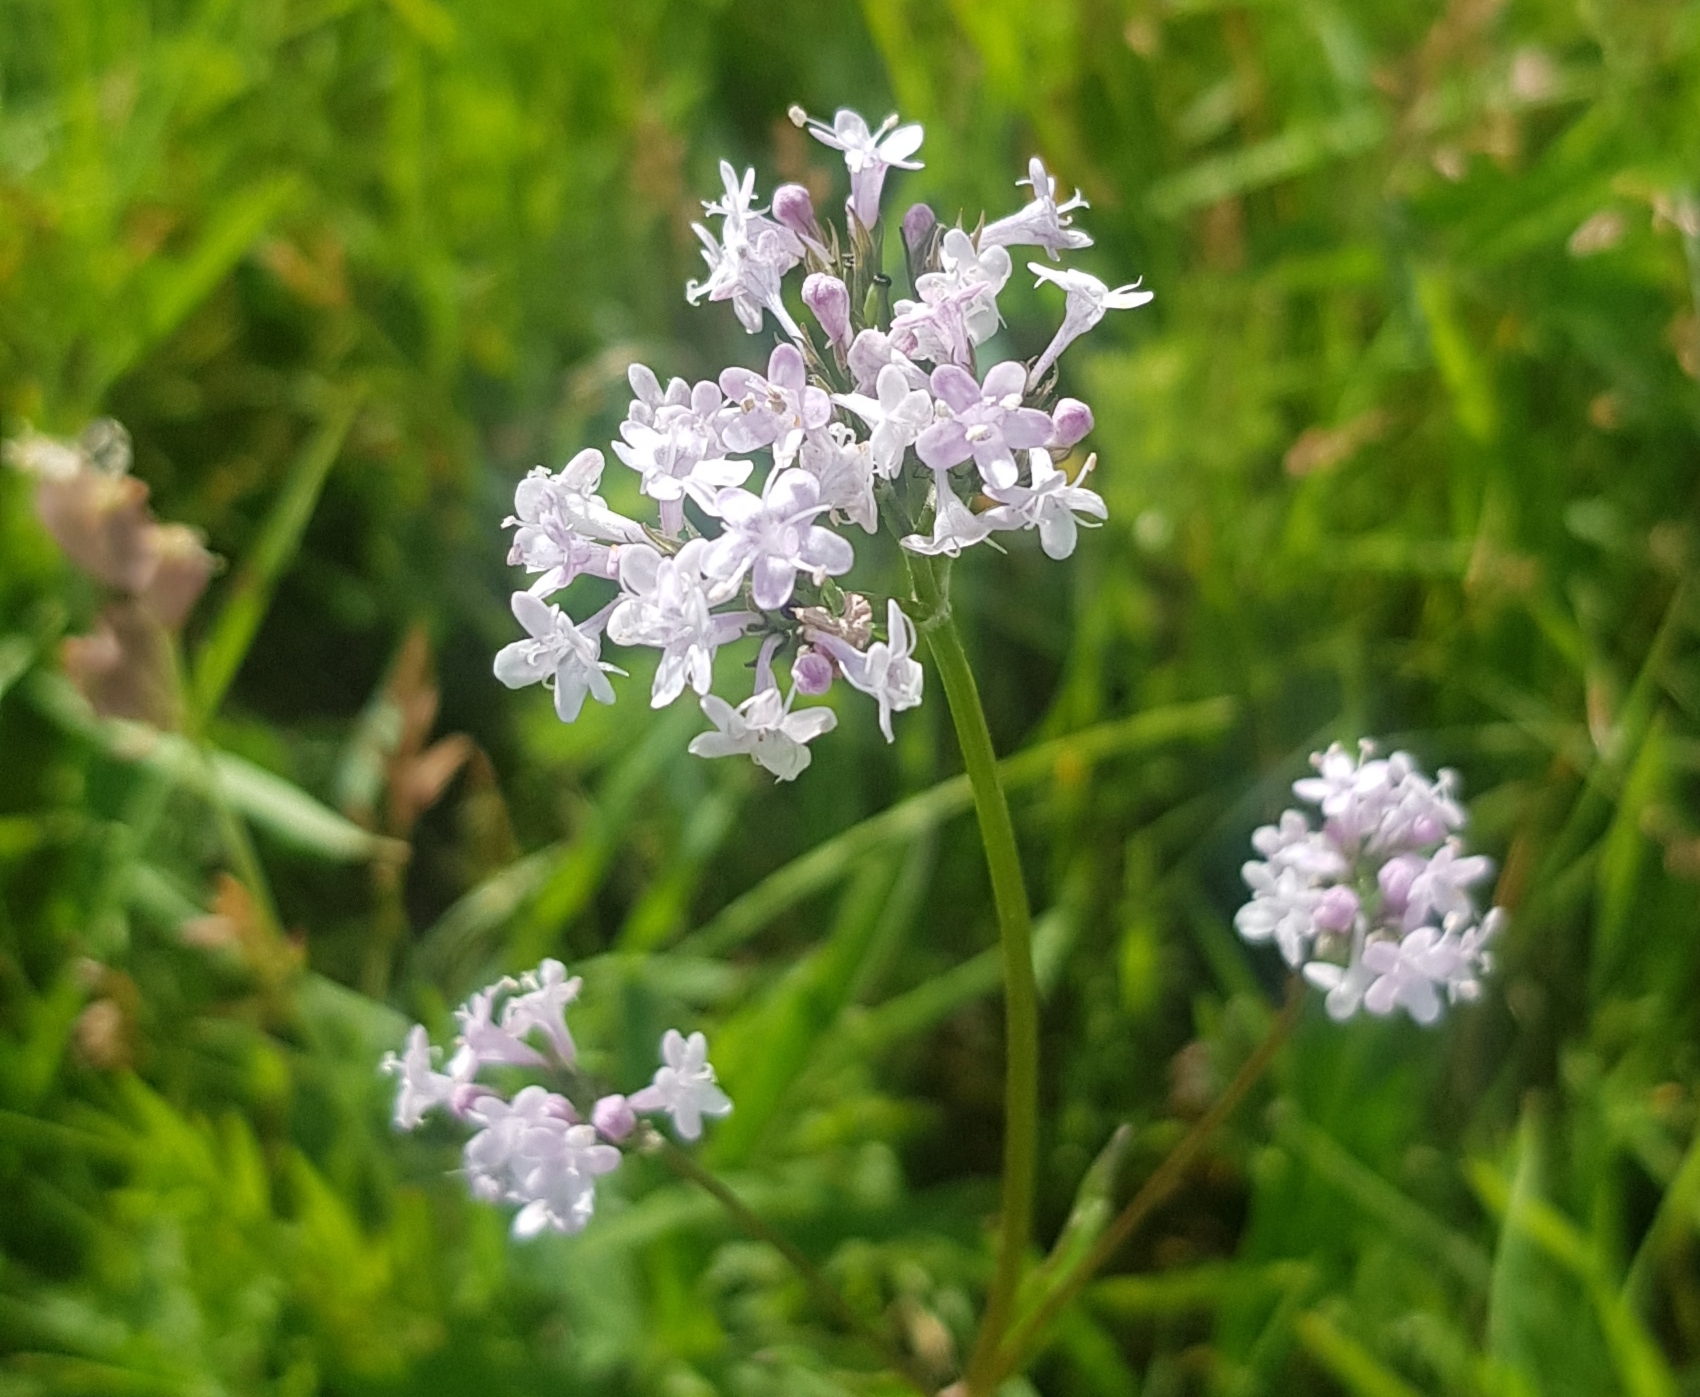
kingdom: Plantae
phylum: Tracheophyta
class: Magnoliopsida
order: Dipsacales
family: Caprifoliaceae
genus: Valeriana
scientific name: Valeriana officinalis
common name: Common valerian
